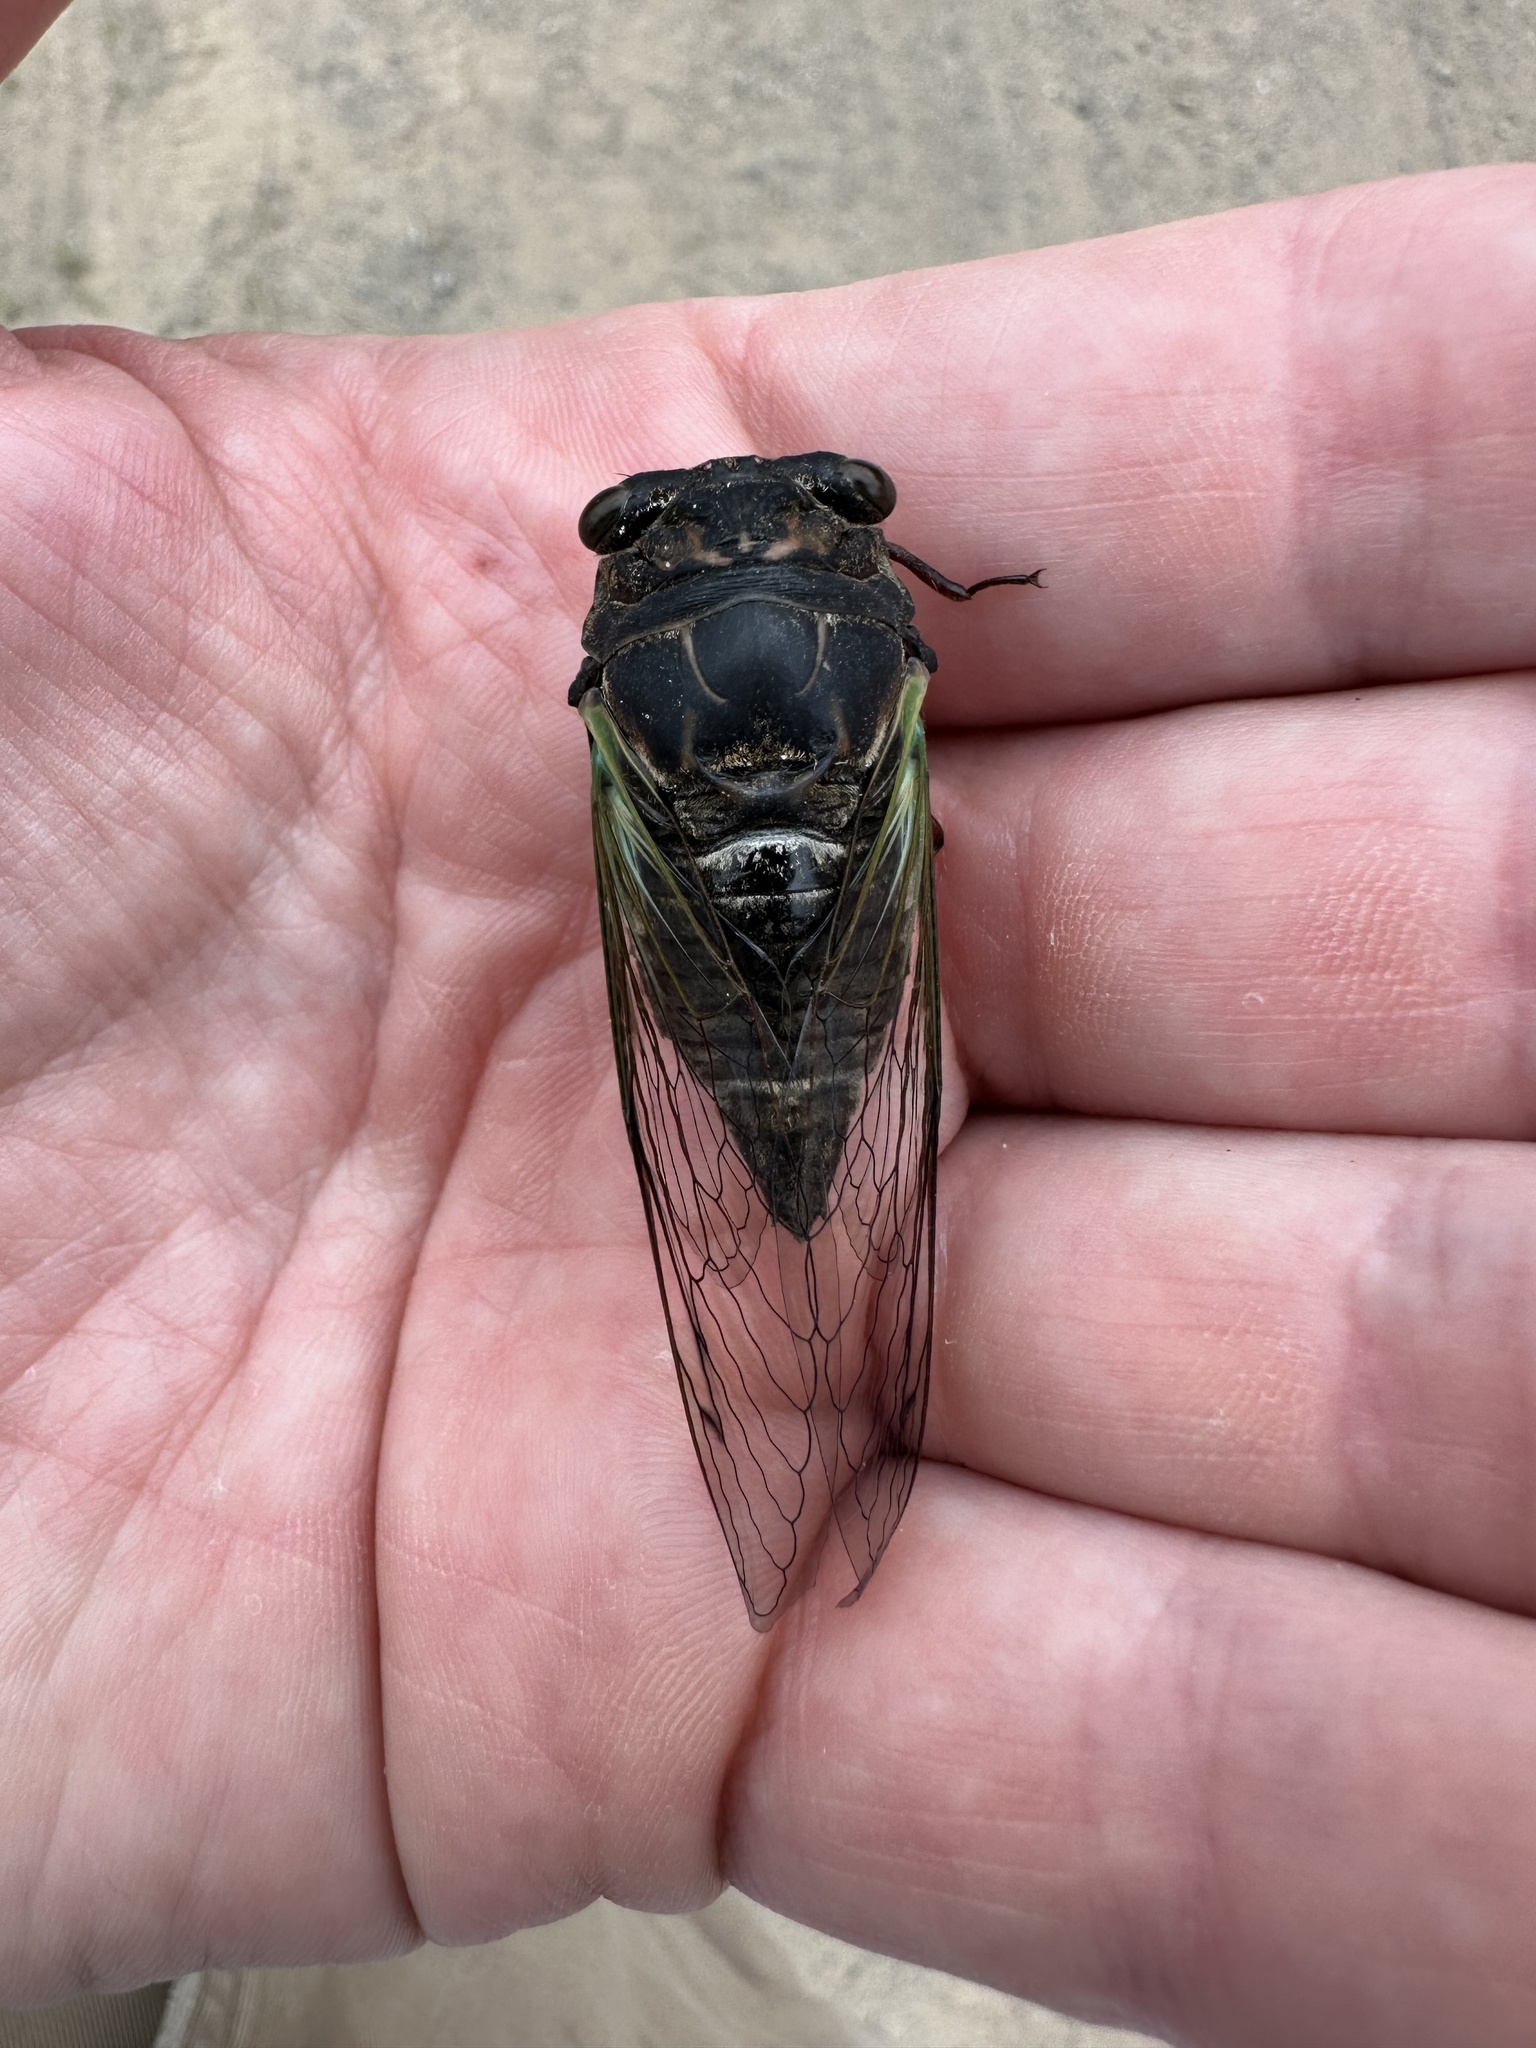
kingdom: Animalia
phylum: Arthropoda
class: Insecta
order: Hemiptera
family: Cicadidae
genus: Neotibicen
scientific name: Neotibicen lyricen
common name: Lyric cicada
